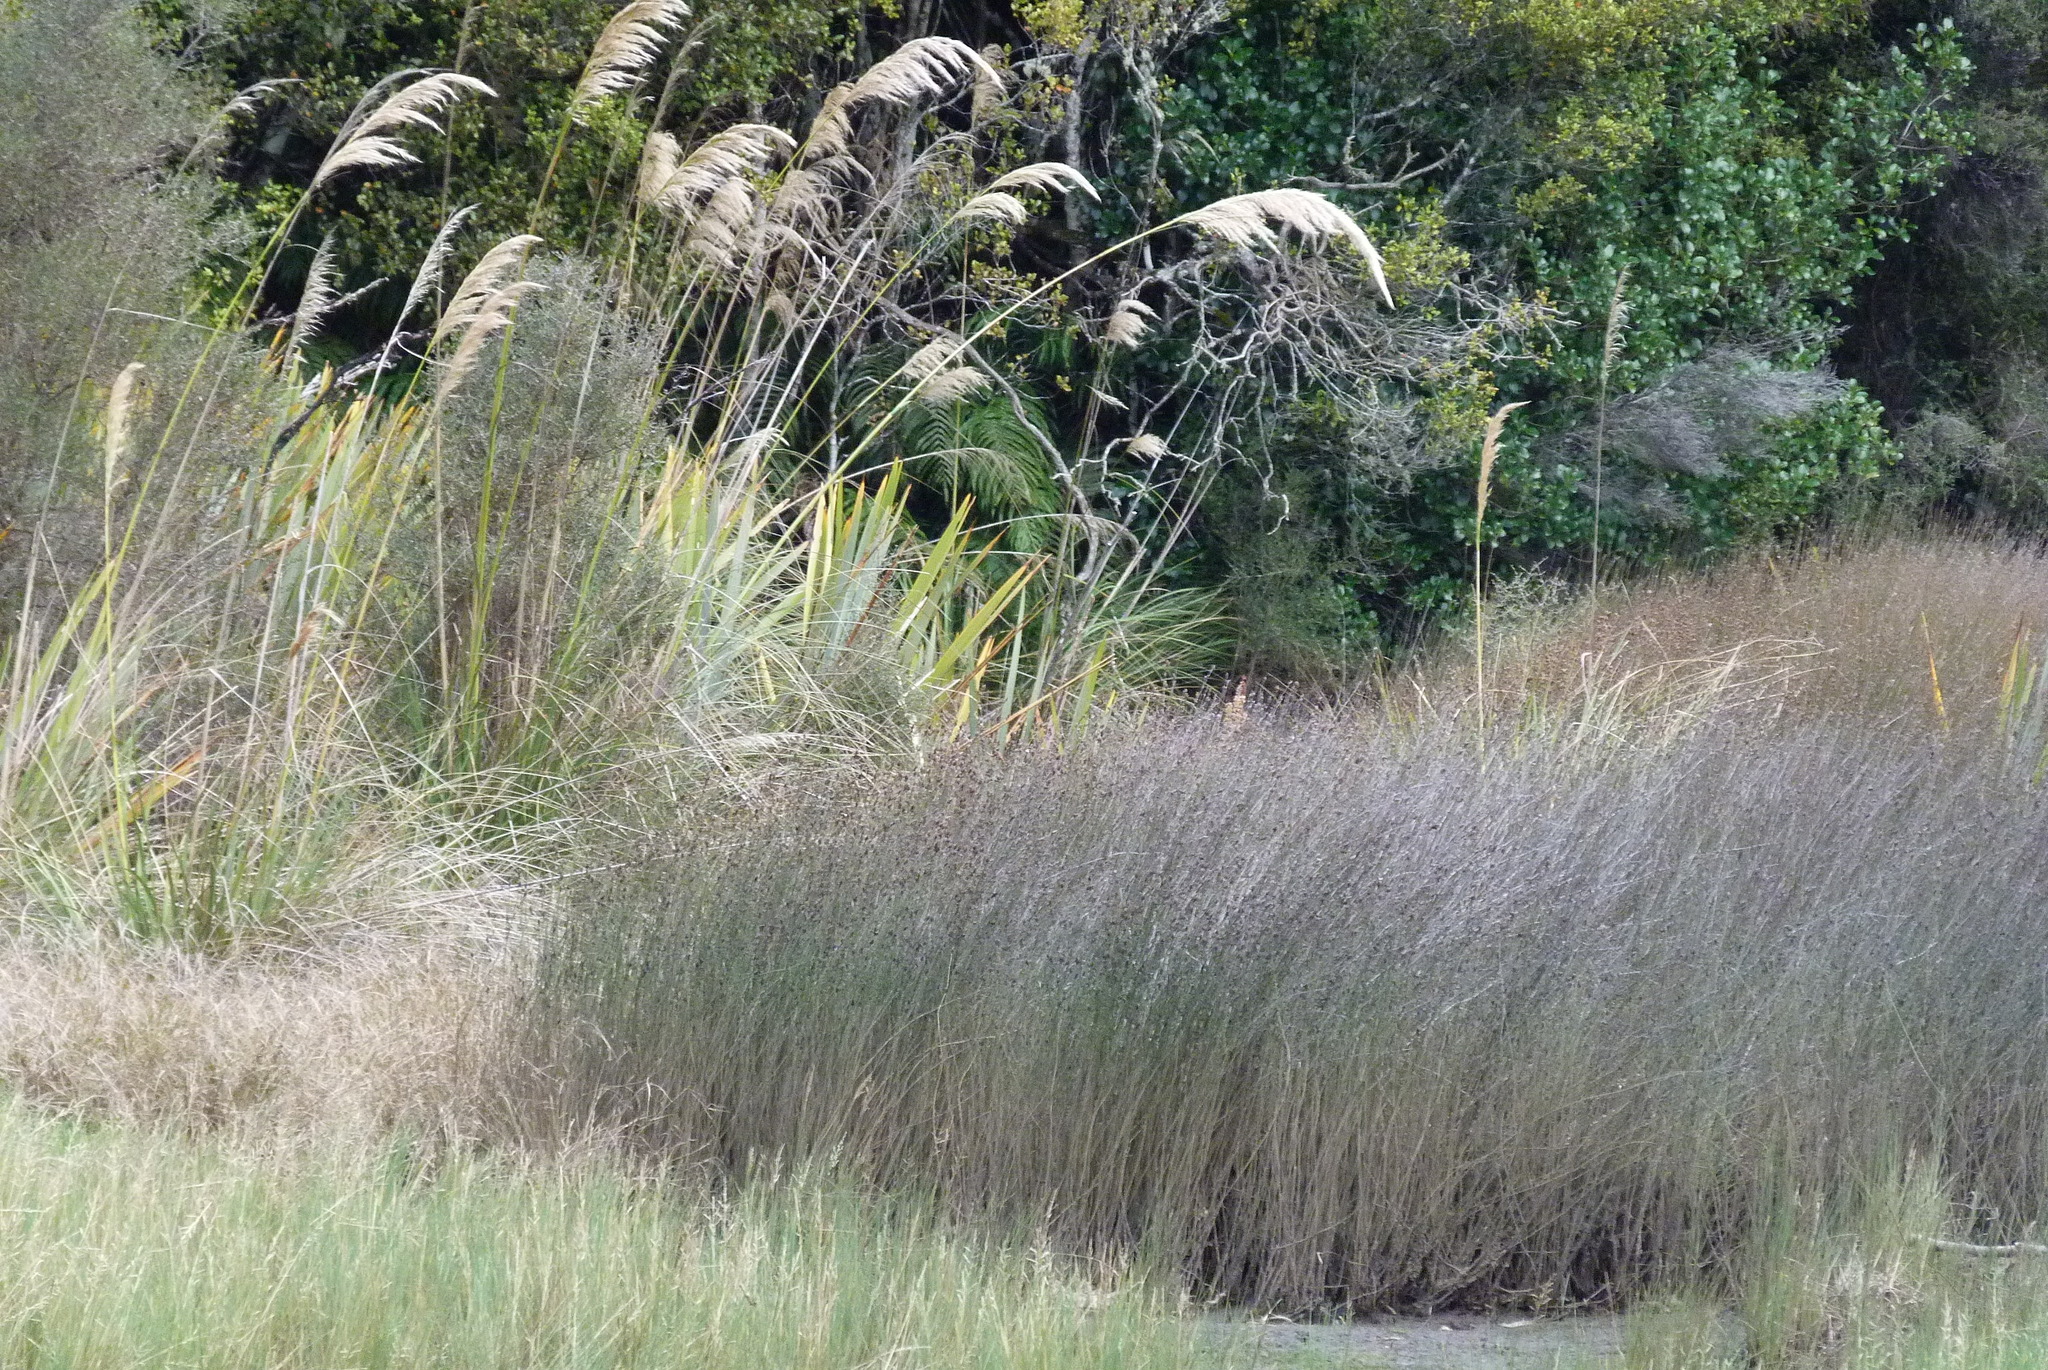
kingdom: Plantae
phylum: Tracheophyta
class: Liliopsida
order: Poales
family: Restionaceae
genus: Apodasmia
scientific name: Apodasmia similis
